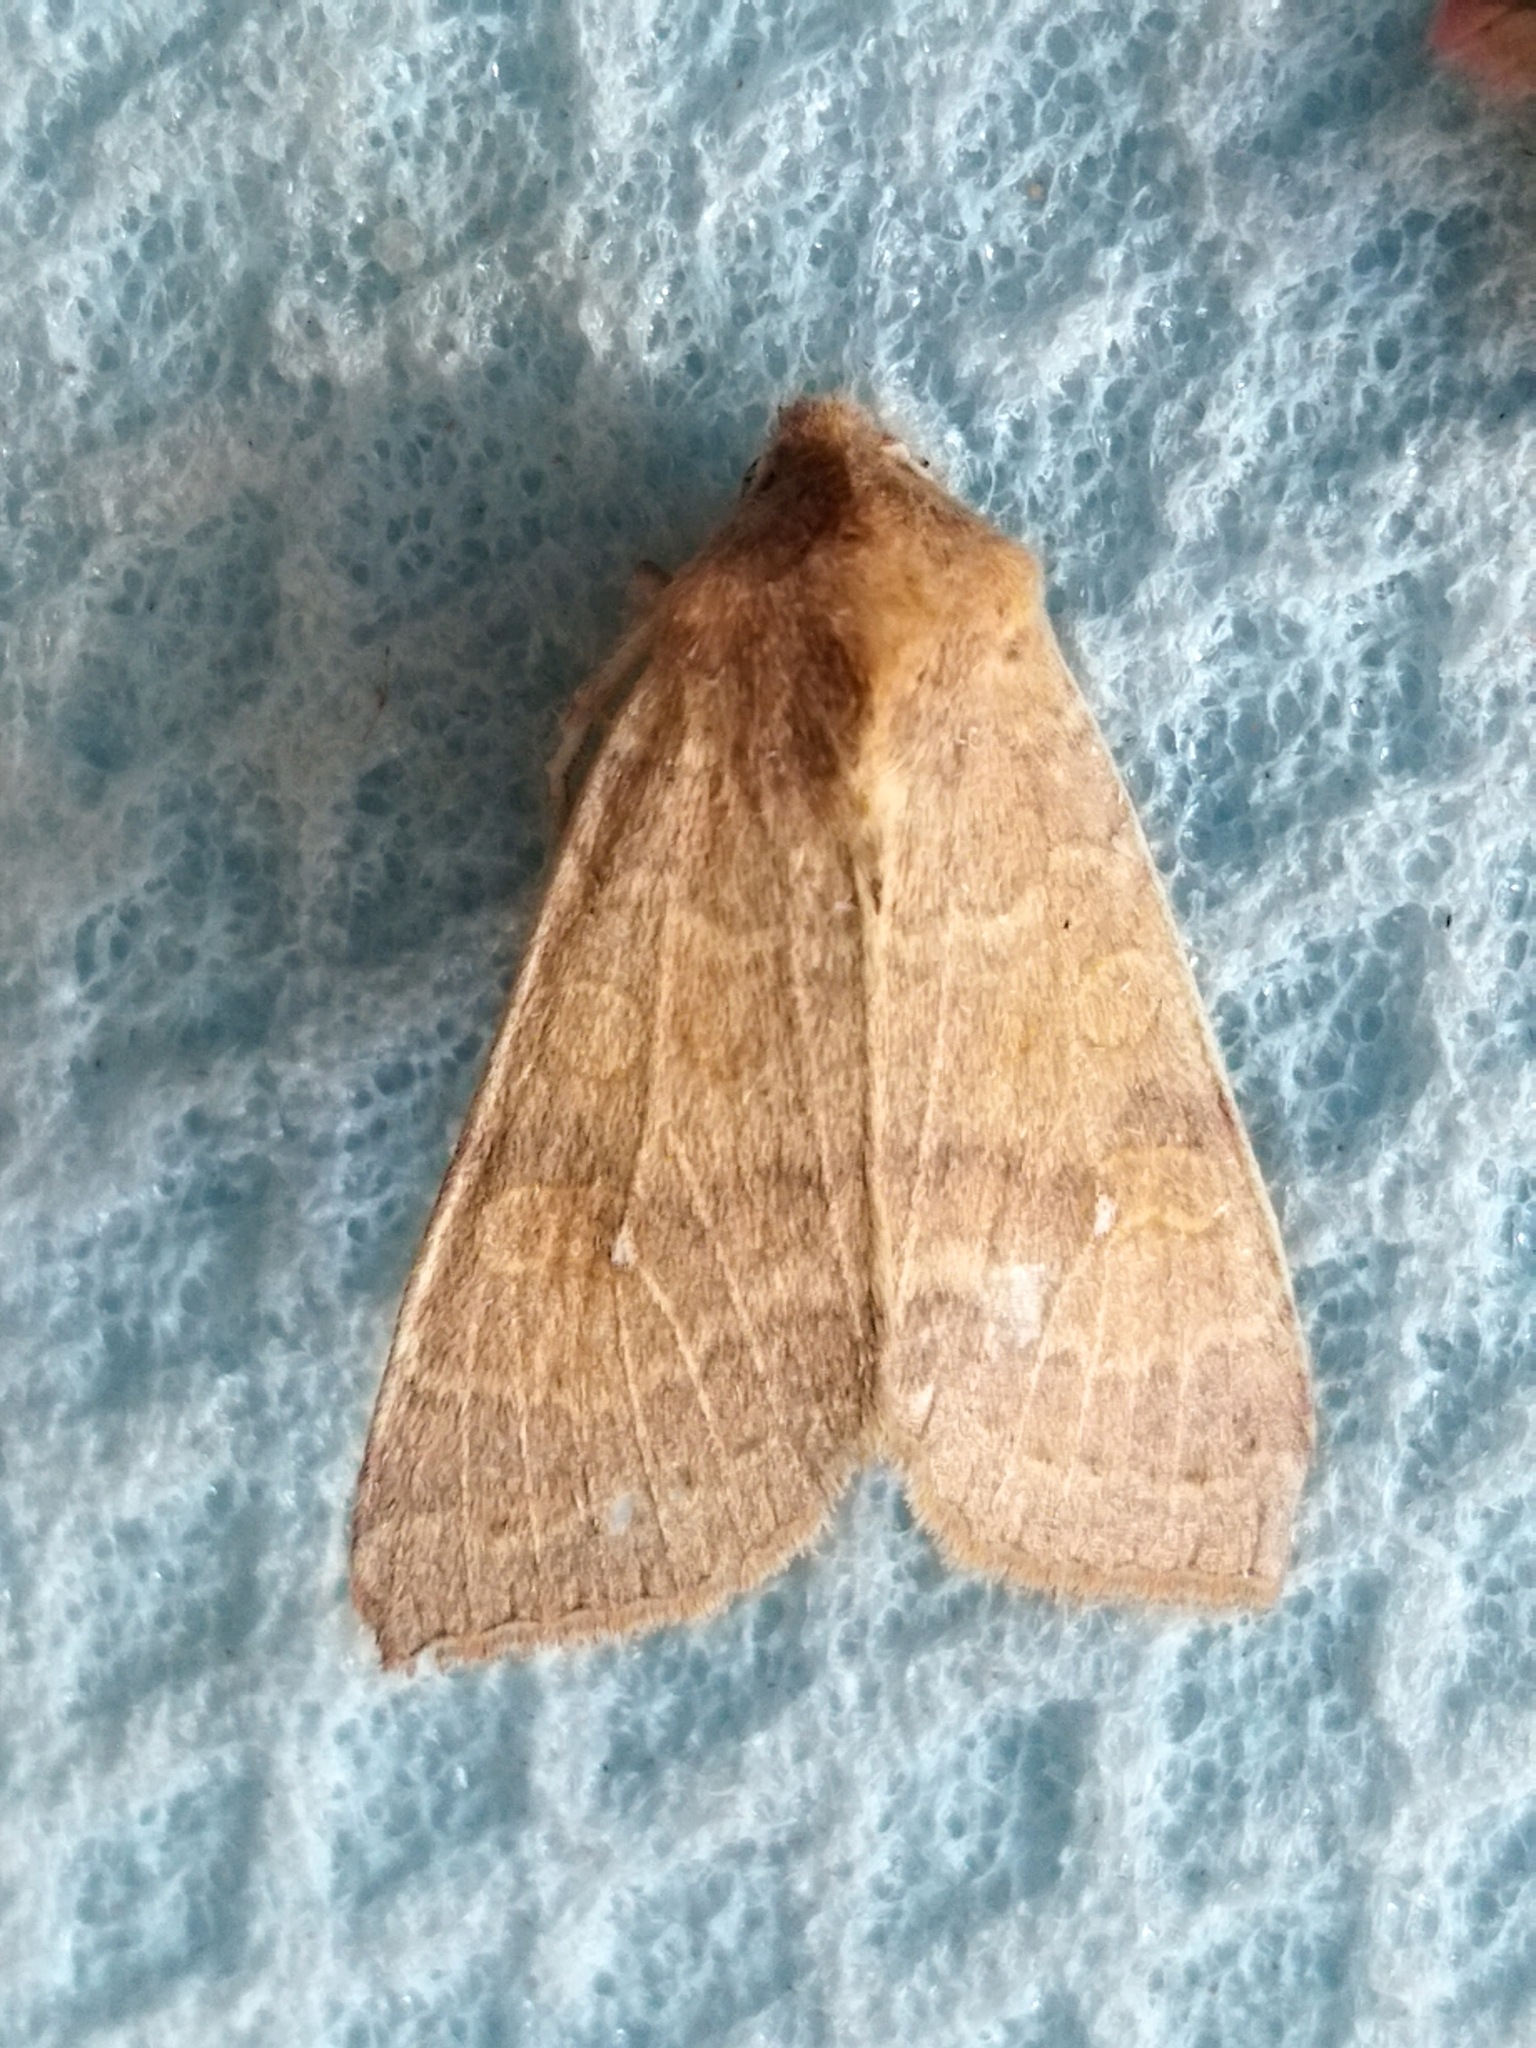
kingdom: Animalia
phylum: Arthropoda
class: Insecta
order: Lepidoptera
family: Noctuidae
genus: Xanthia
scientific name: Xanthia ocellaris
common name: Pale-lemon sallow
